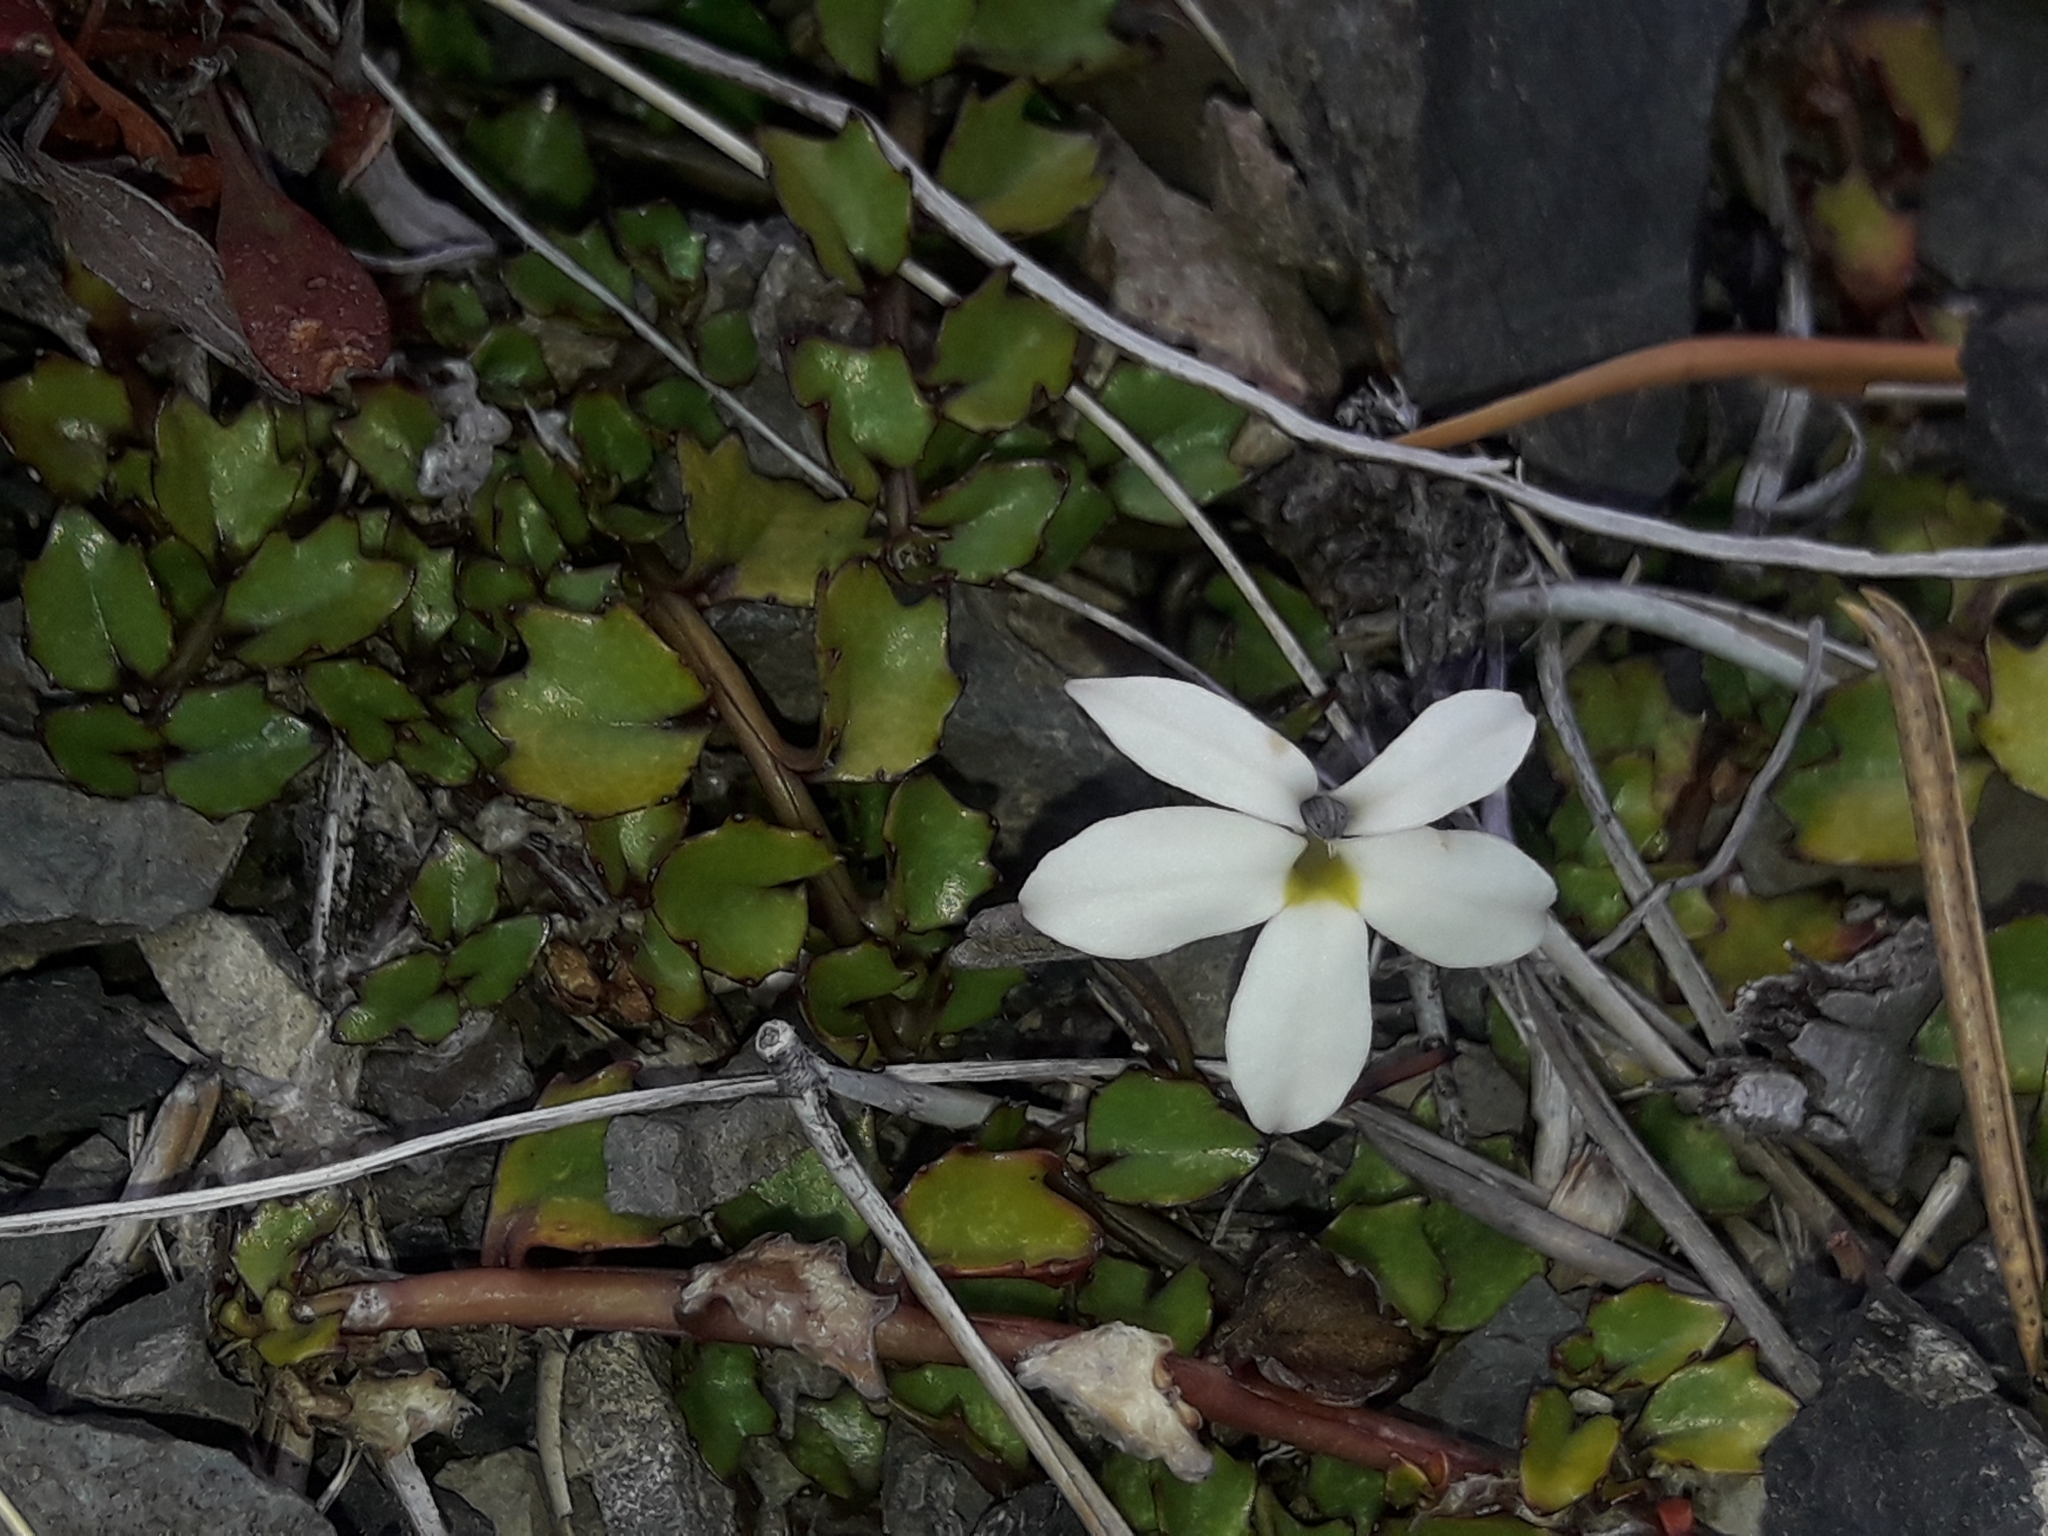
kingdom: Plantae
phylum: Tracheophyta
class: Magnoliopsida
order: Asterales
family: Campanulaceae
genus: Lobelia
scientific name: Lobelia macrodon
